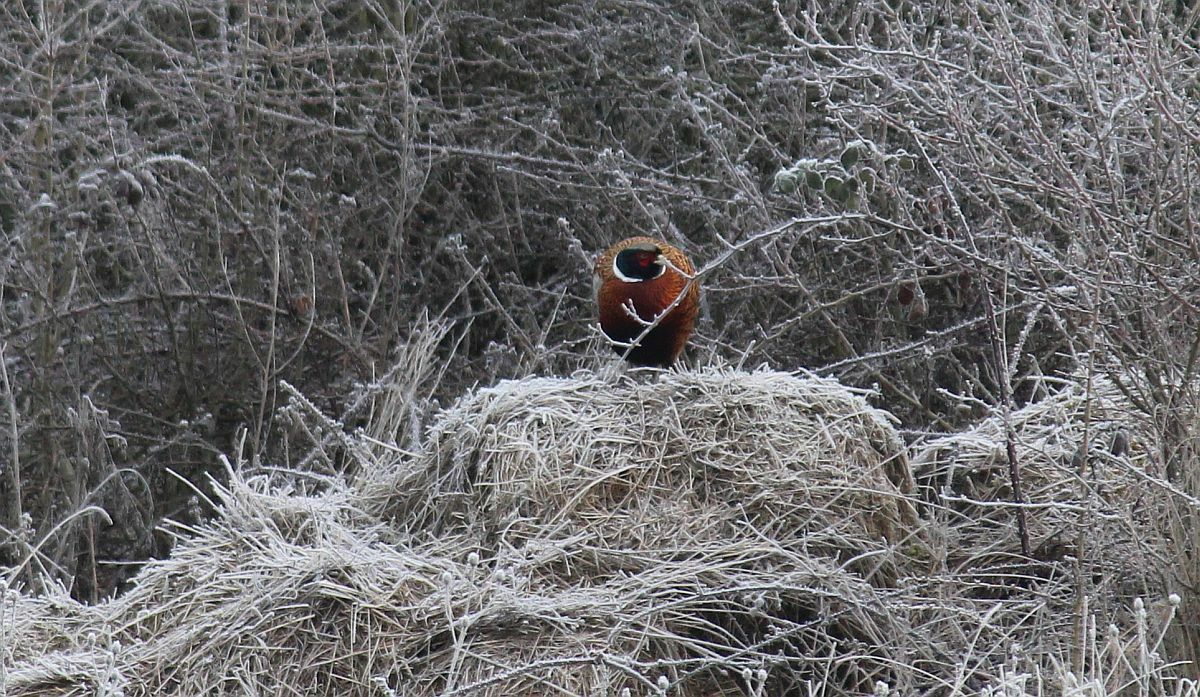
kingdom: Animalia
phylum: Chordata
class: Aves
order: Galliformes
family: Phasianidae
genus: Phasianus
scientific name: Phasianus colchicus
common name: Common pheasant
